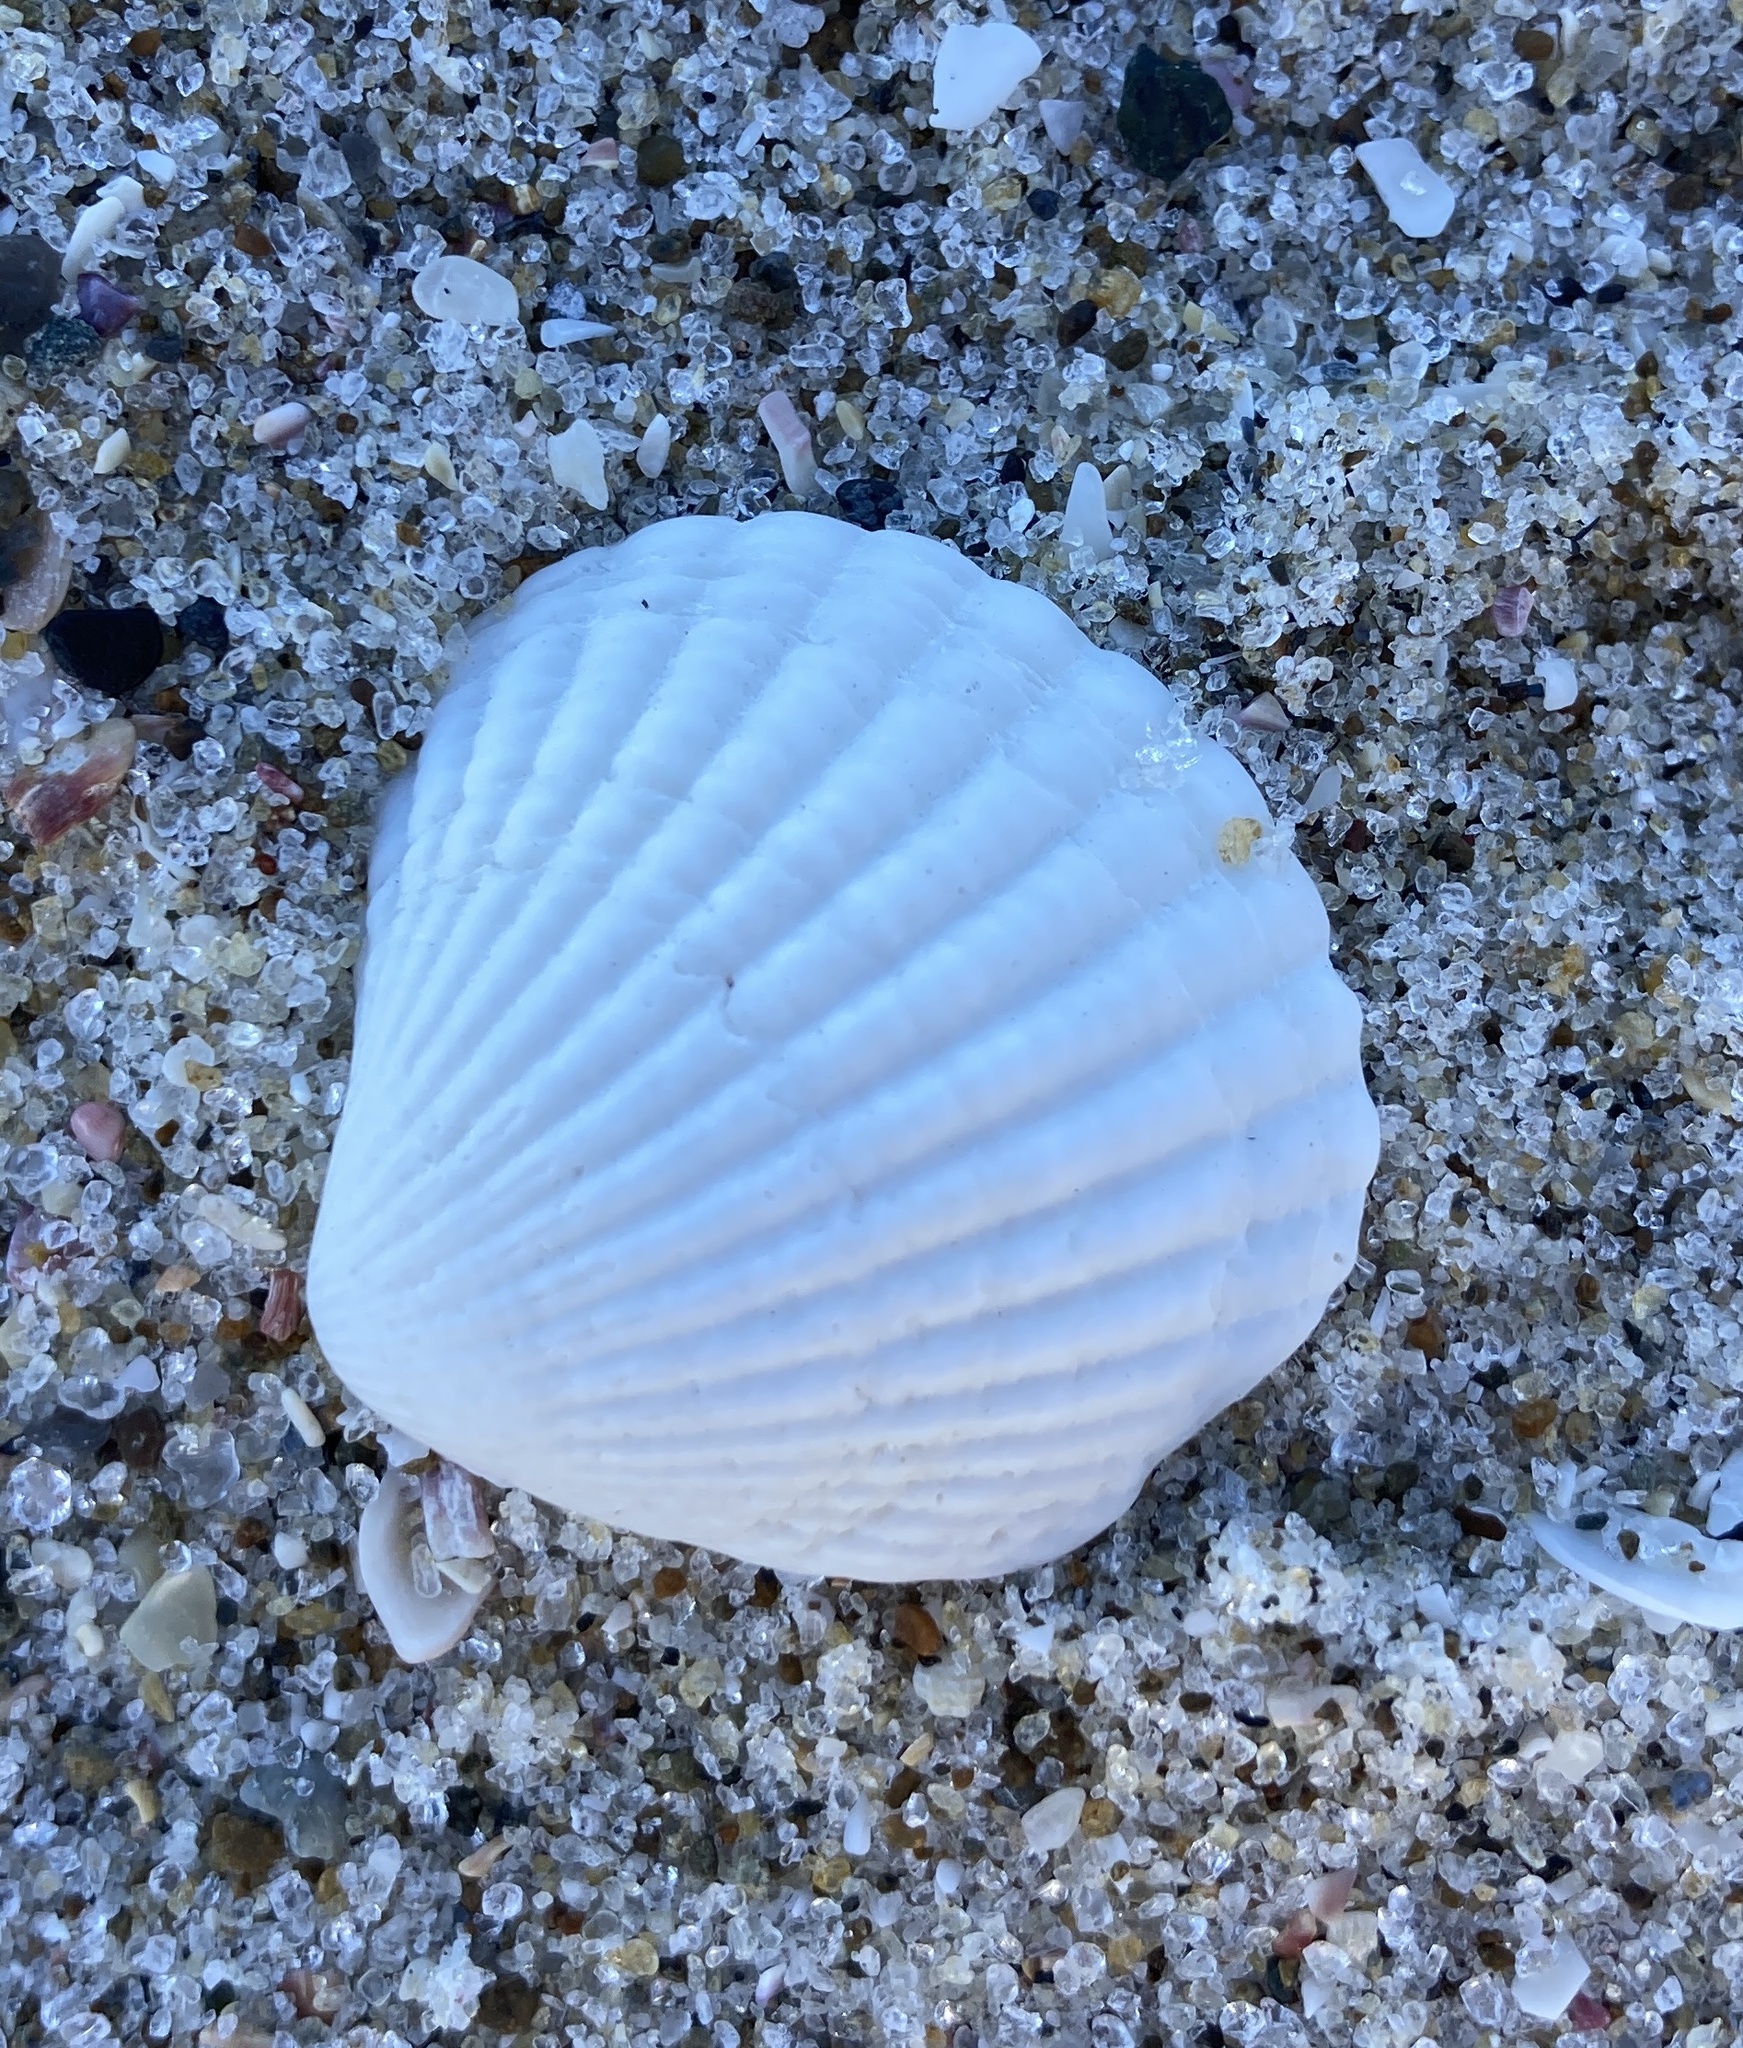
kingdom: Animalia
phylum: Mollusca
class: Bivalvia
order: Carditida
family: Carditidae
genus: Purpurocardia
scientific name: Purpurocardia purpurata
